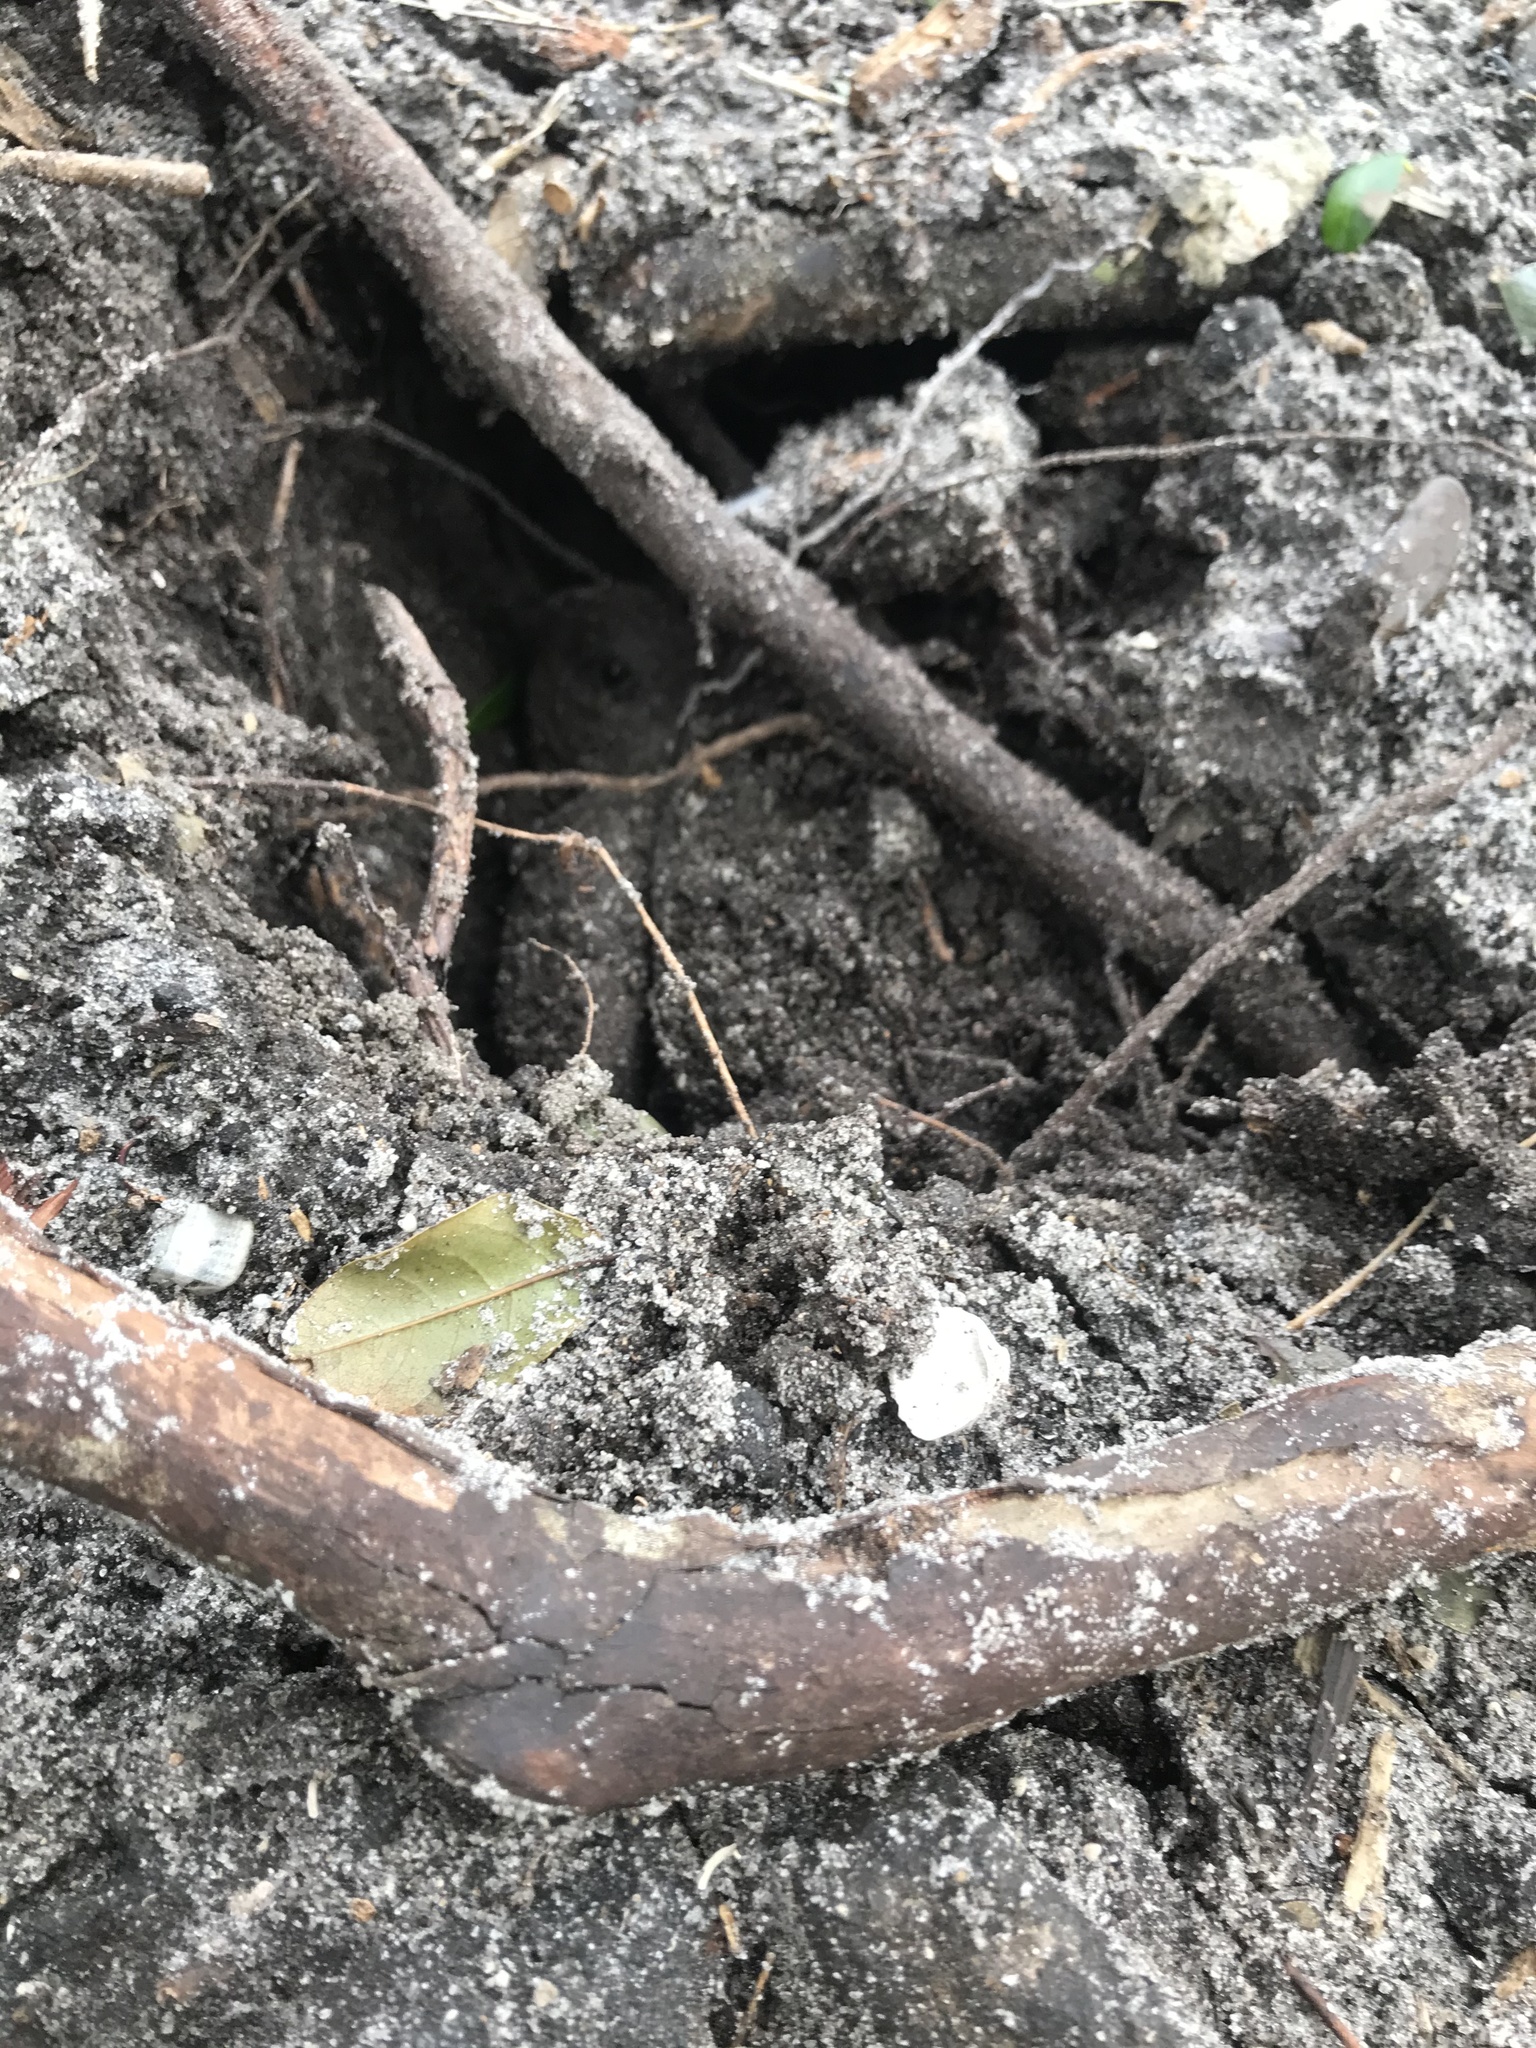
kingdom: Animalia
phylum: Chordata
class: Testudines
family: Testudinidae
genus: Gopherus
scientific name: Gopherus polyphemus
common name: Florida gopher tortoise
